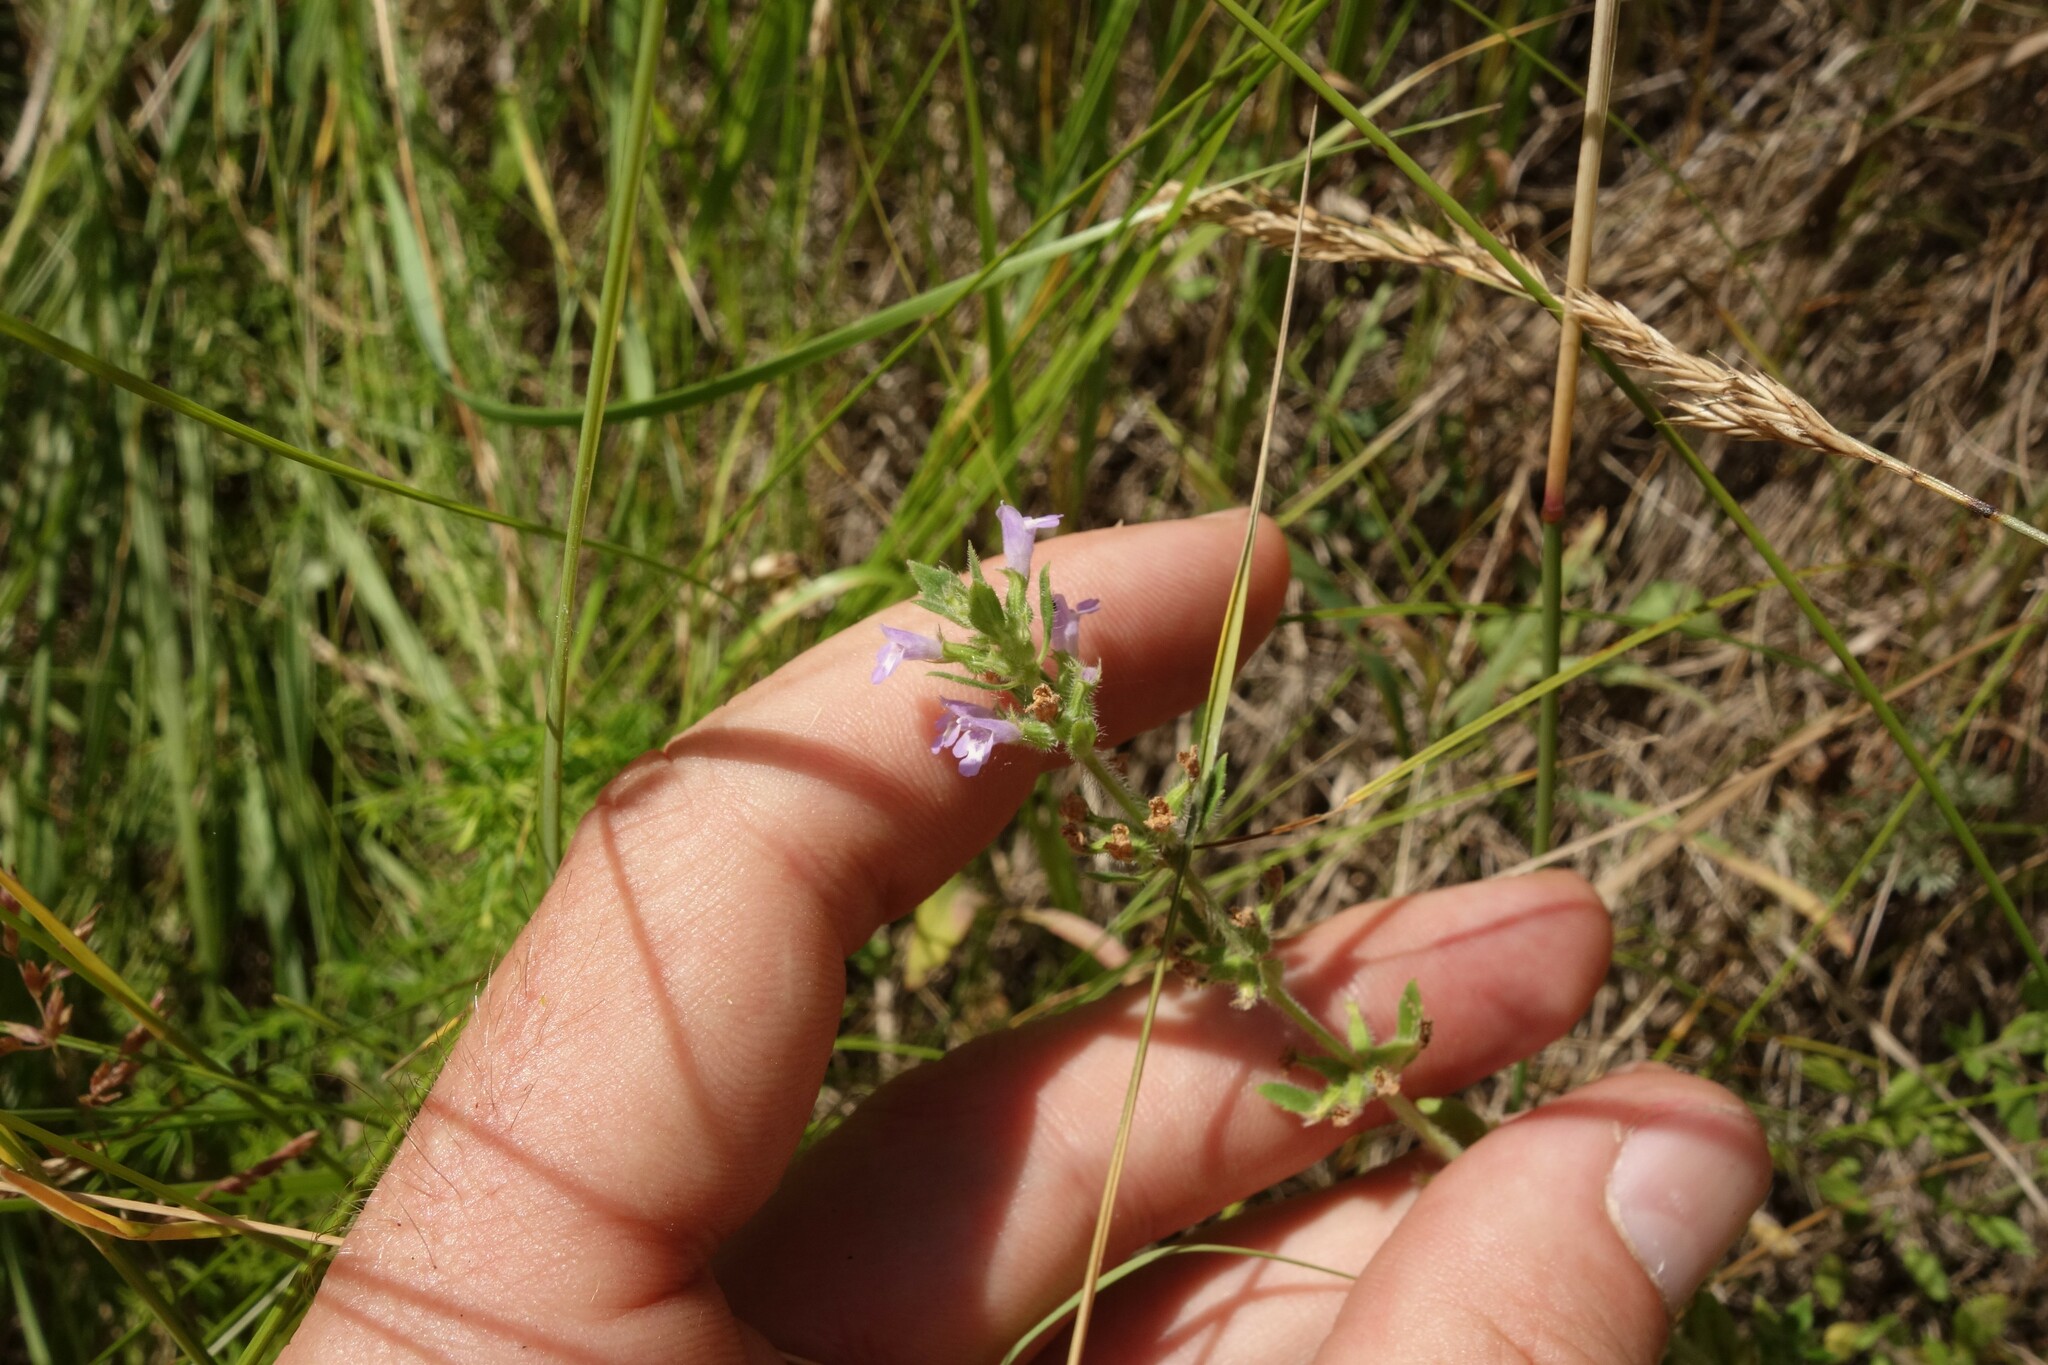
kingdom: Plantae
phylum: Tracheophyta
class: Magnoliopsida
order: Lamiales
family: Lamiaceae
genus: Clinopodium
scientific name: Clinopodium acinos
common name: Basil thyme
